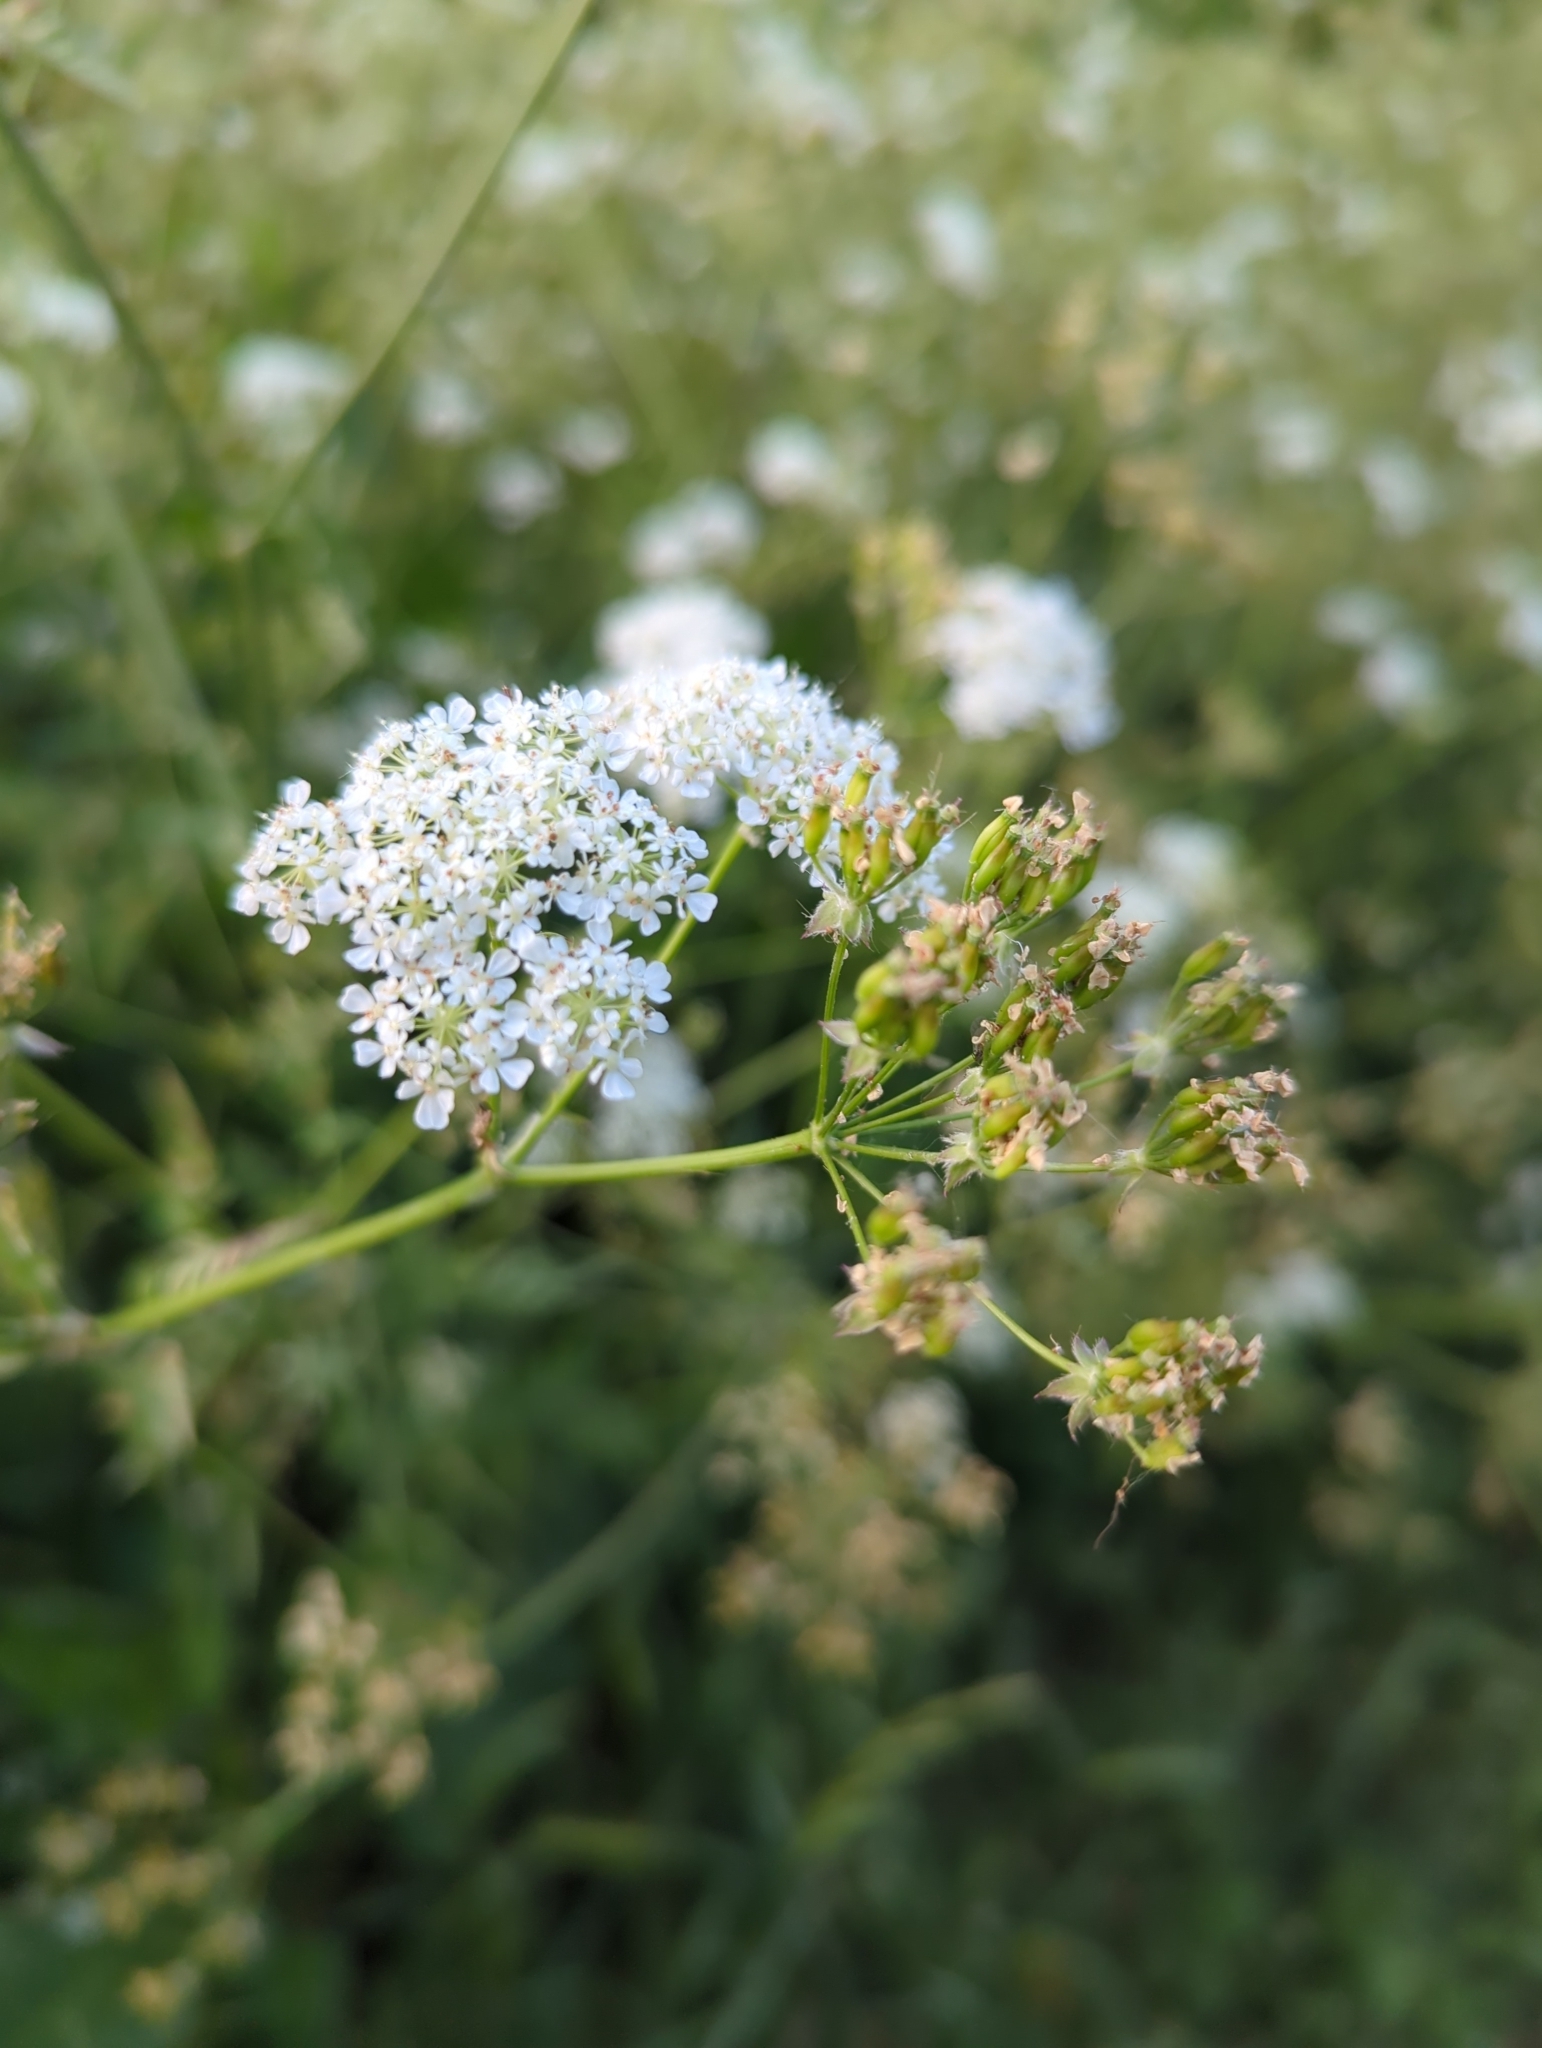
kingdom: Plantae
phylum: Tracheophyta
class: Magnoliopsida
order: Apiales
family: Apiaceae
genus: Anthriscus
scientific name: Anthriscus sylvestris
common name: Cow parsley
